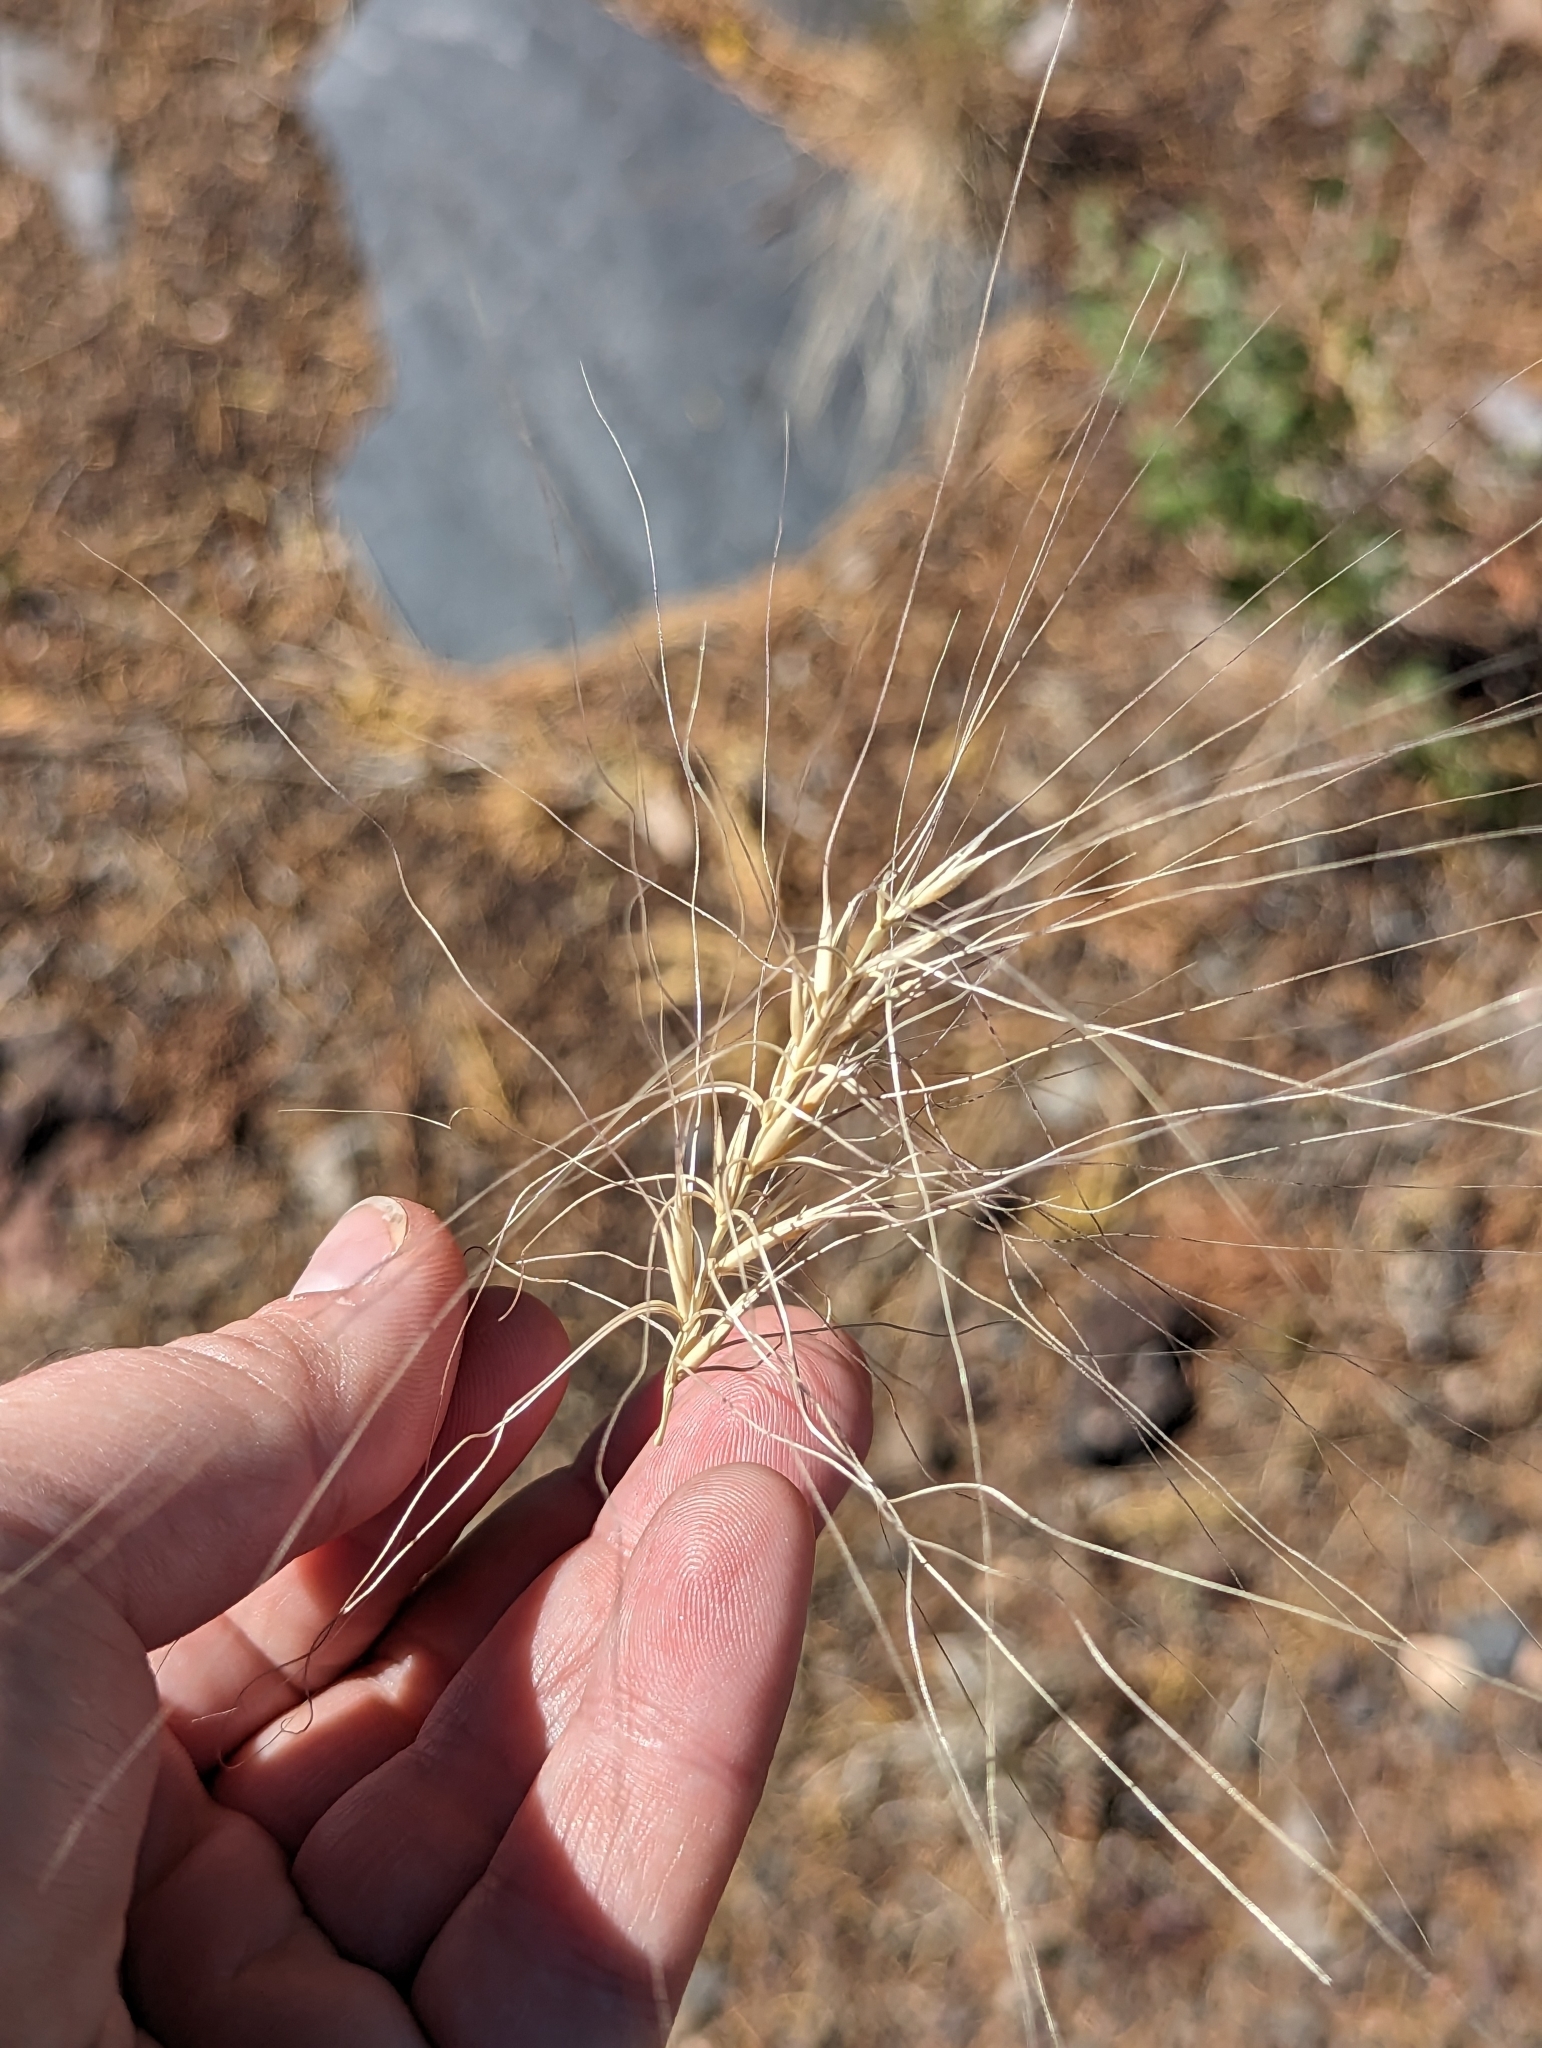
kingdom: Plantae
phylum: Tracheophyta
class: Liliopsida
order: Poales
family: Poaceae
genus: Elymus
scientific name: Elymus elymoides
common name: Bottlebrush squirreltail
